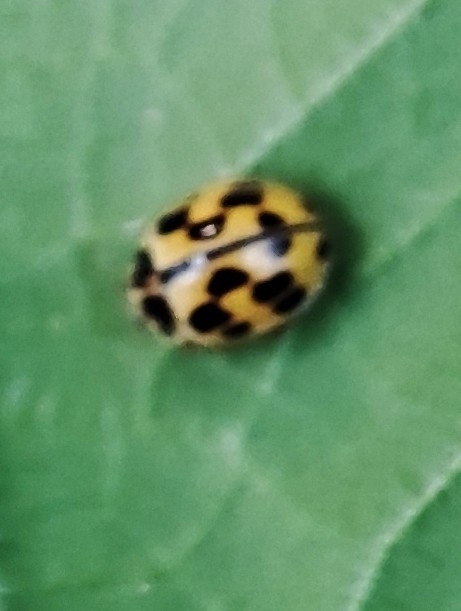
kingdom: Animalia
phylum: Arthropoda
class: Insecta
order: Coleoptera
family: Coccinellidae
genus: Propylaea
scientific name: Propylaea quatuordecimpunctata
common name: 14-spotted ladybird beetle
